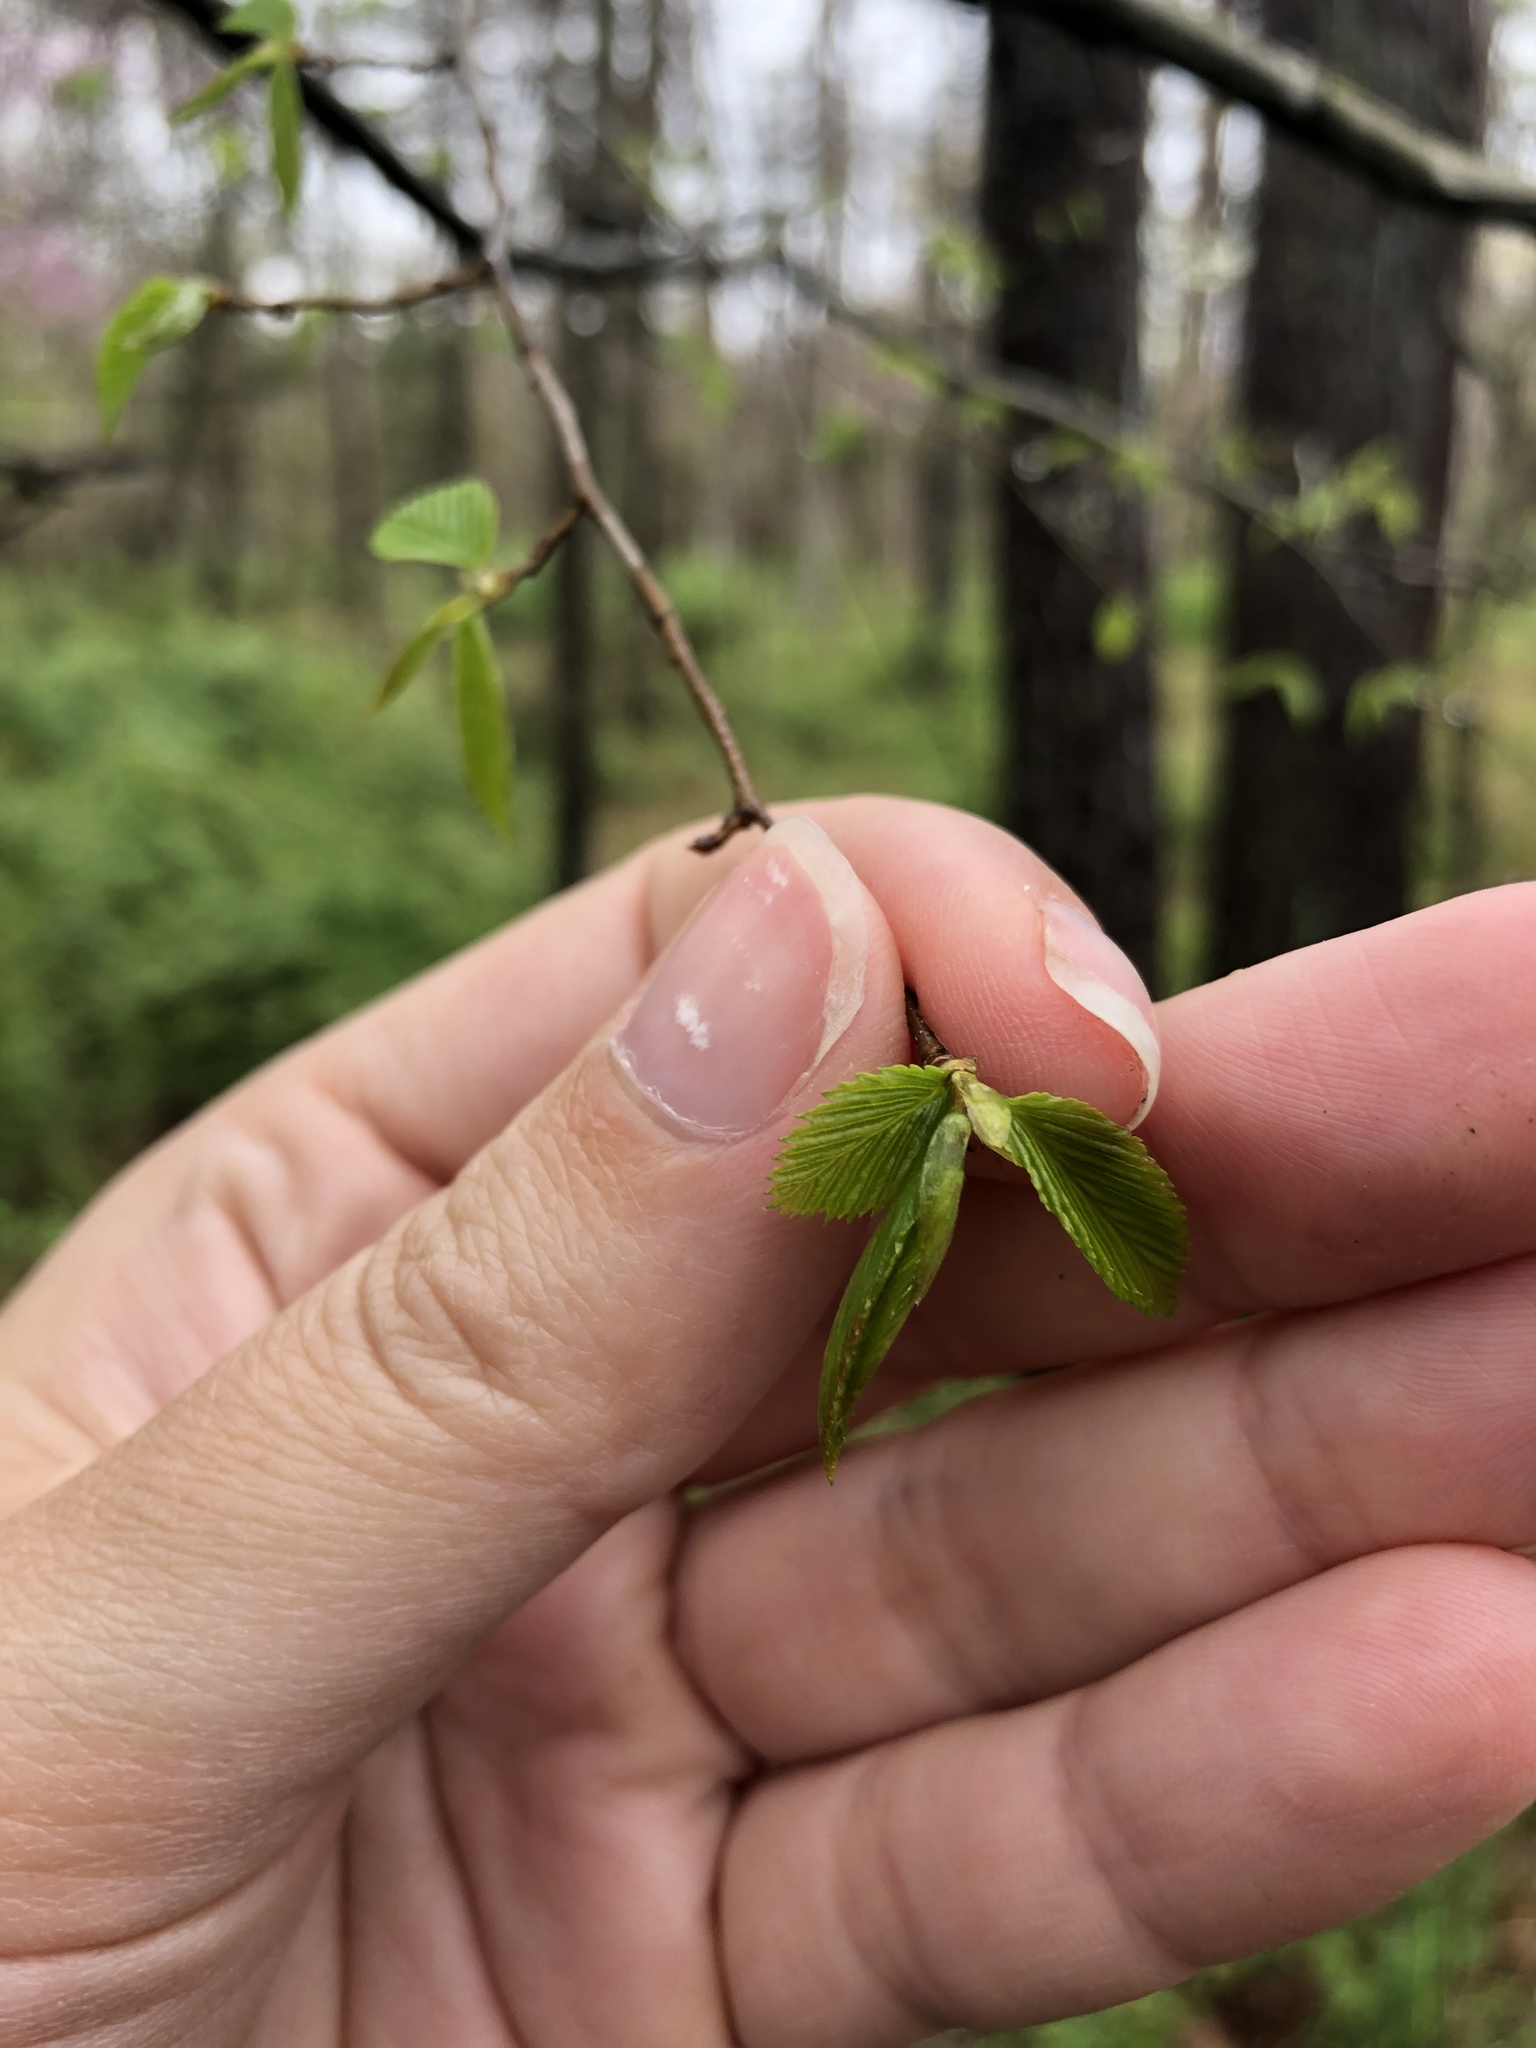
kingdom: Plantae
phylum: Tracheophyta
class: Magnoliopsida
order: Fagales
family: Betulaceae
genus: Carpinus
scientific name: Carpinus caroliniana
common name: American hornbeam
